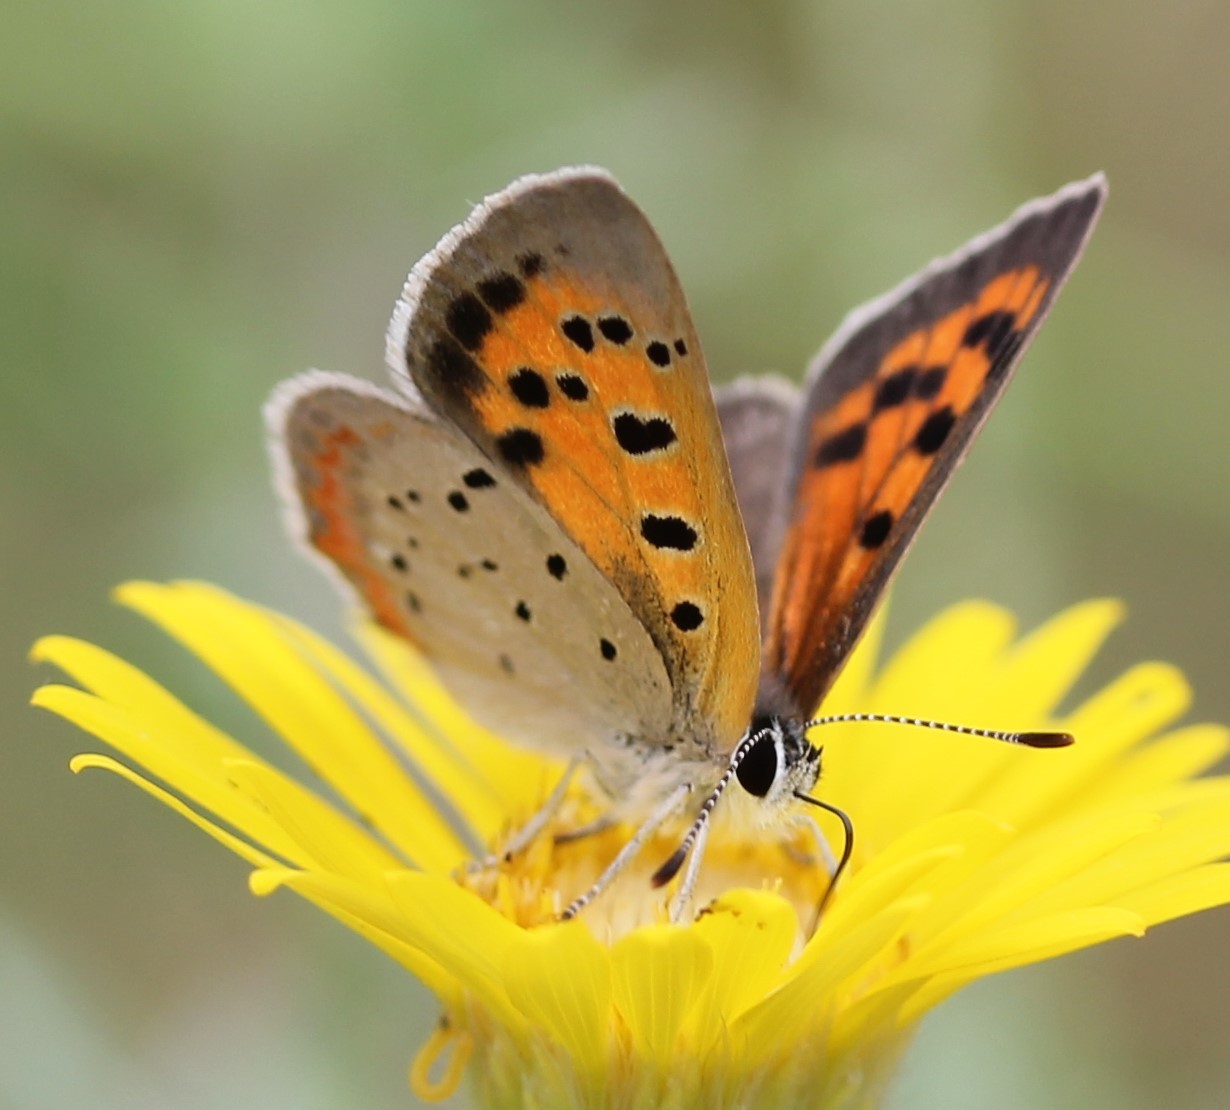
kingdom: Animalia
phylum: Arthropoda
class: Insecta
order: Lepidoptera
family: Lycaenidae
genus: Lycaena
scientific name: Lycaena hypophlaeas
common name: American copper
